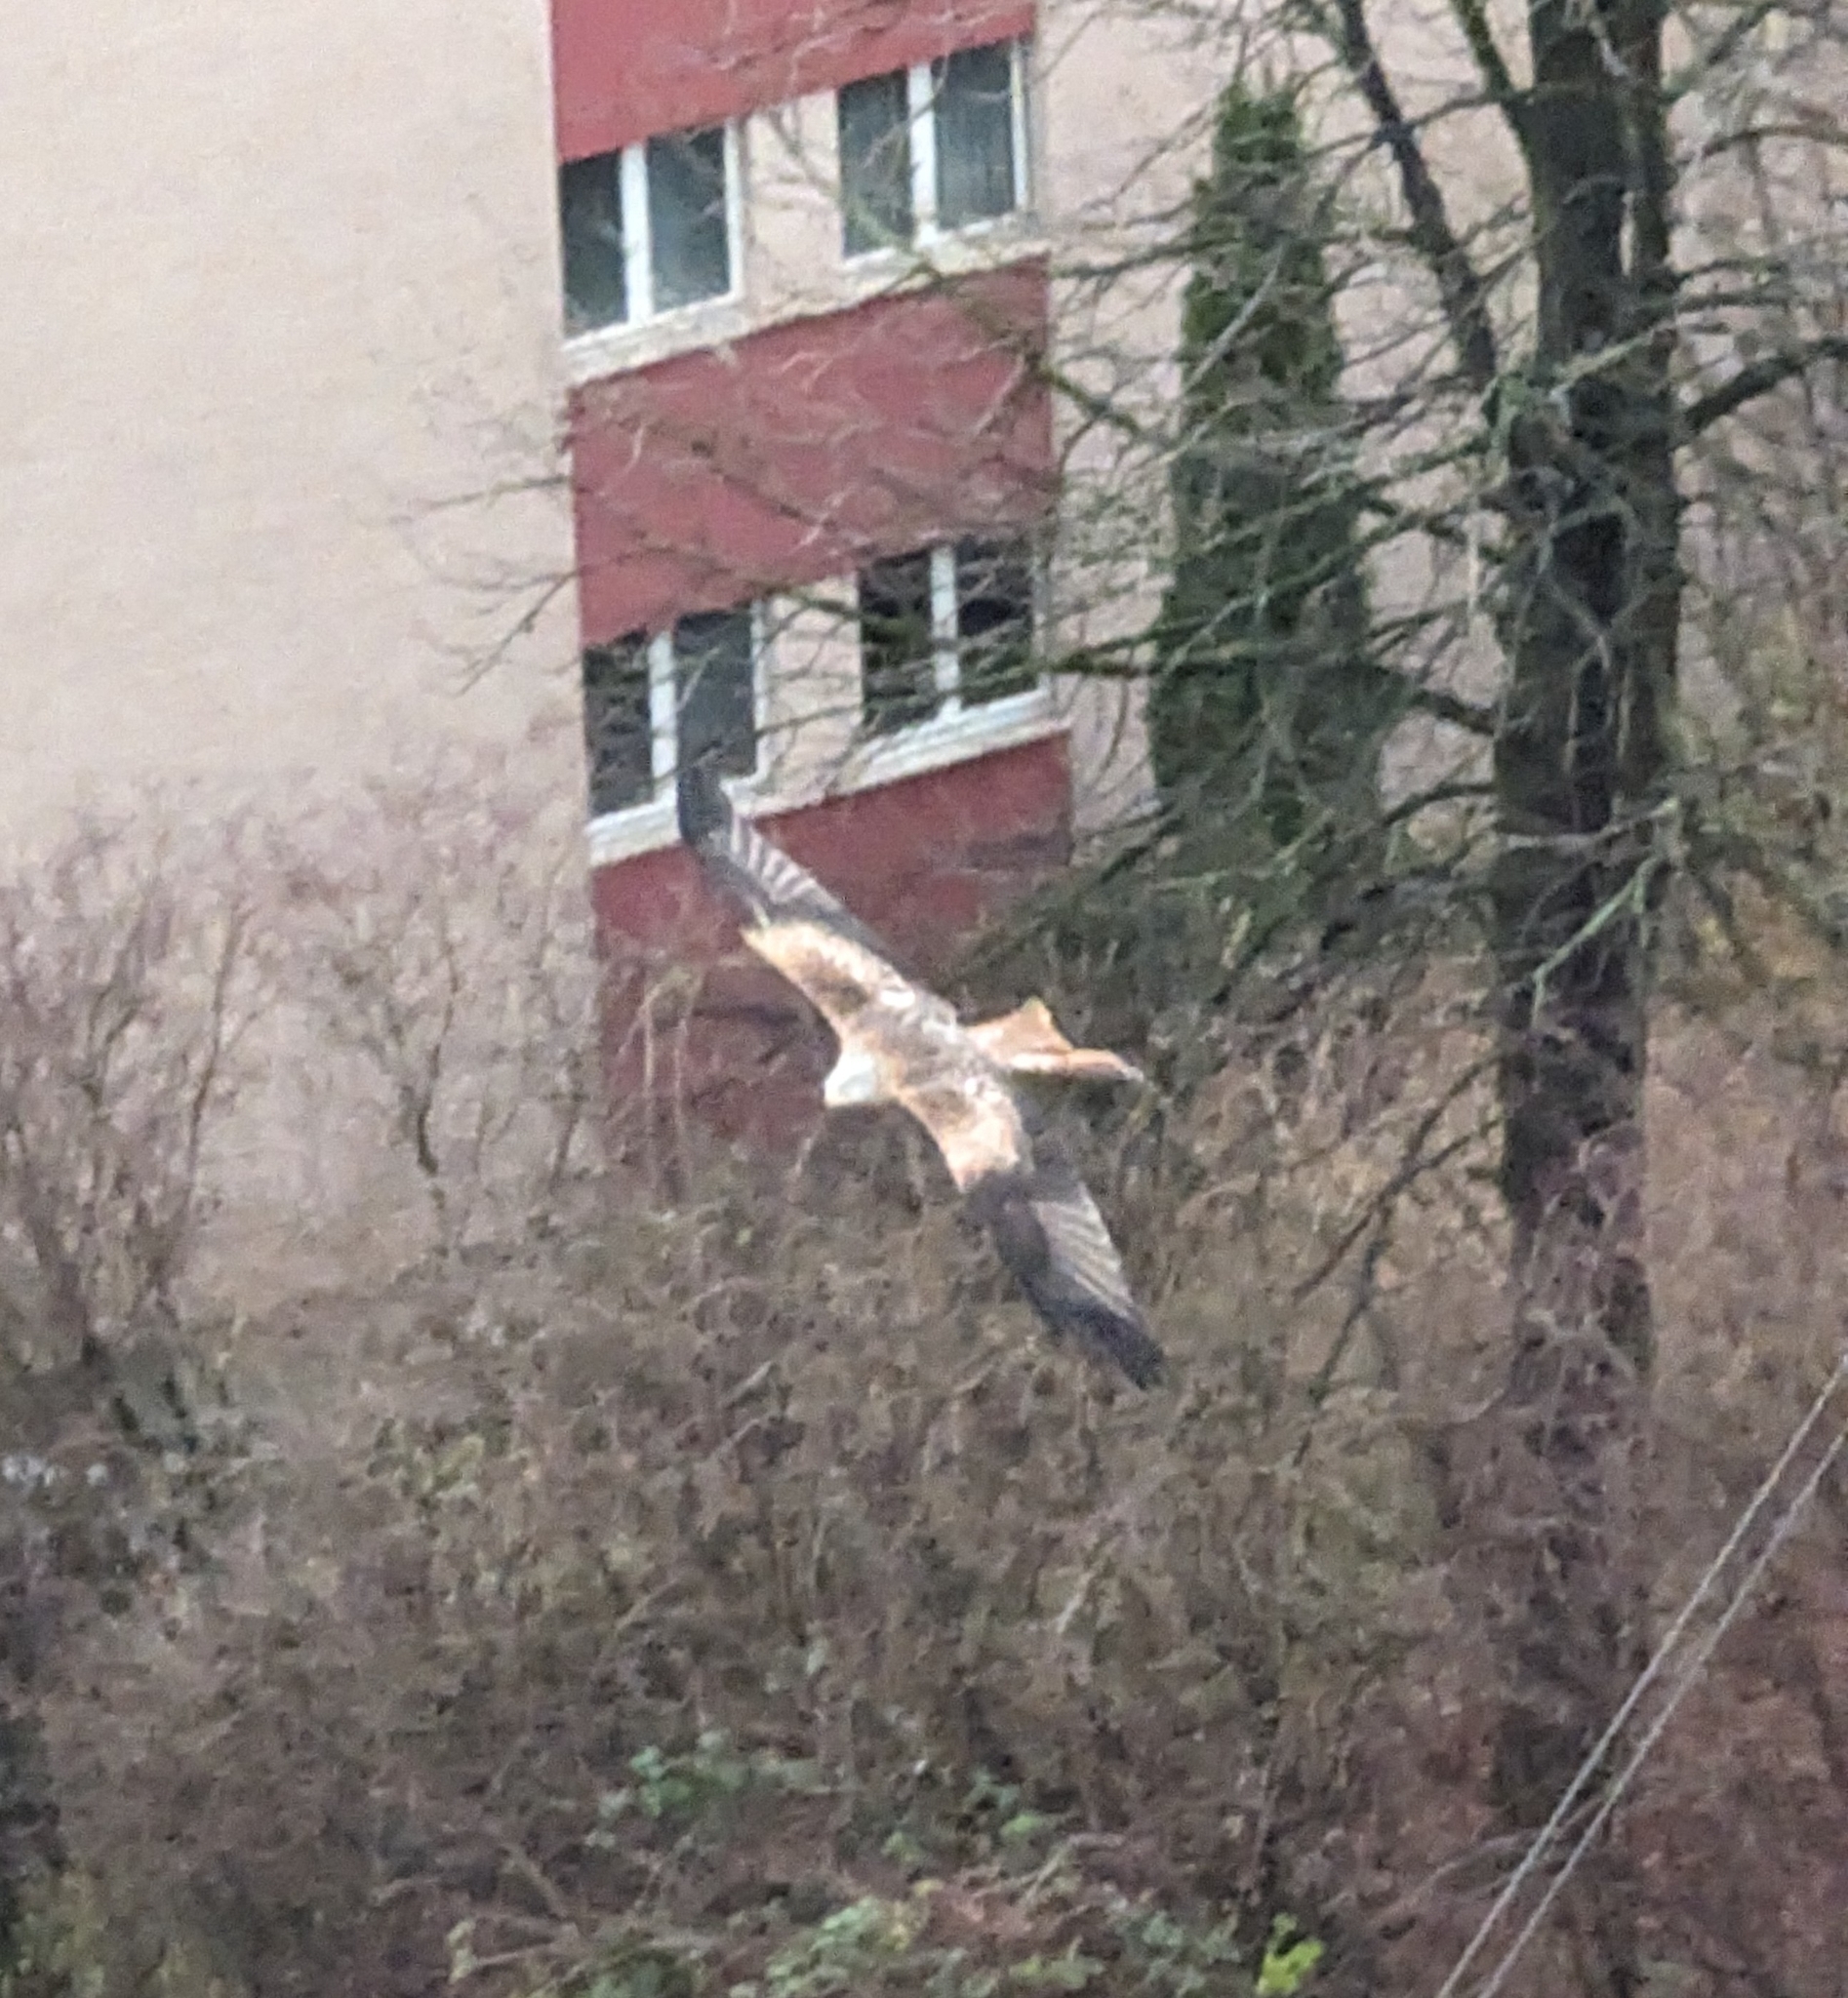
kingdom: Animalia
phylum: Chordata
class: Aves
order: Accipitriformes
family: Accipitridae
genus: Milvus
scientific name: Milvus milvus
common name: Red kite
